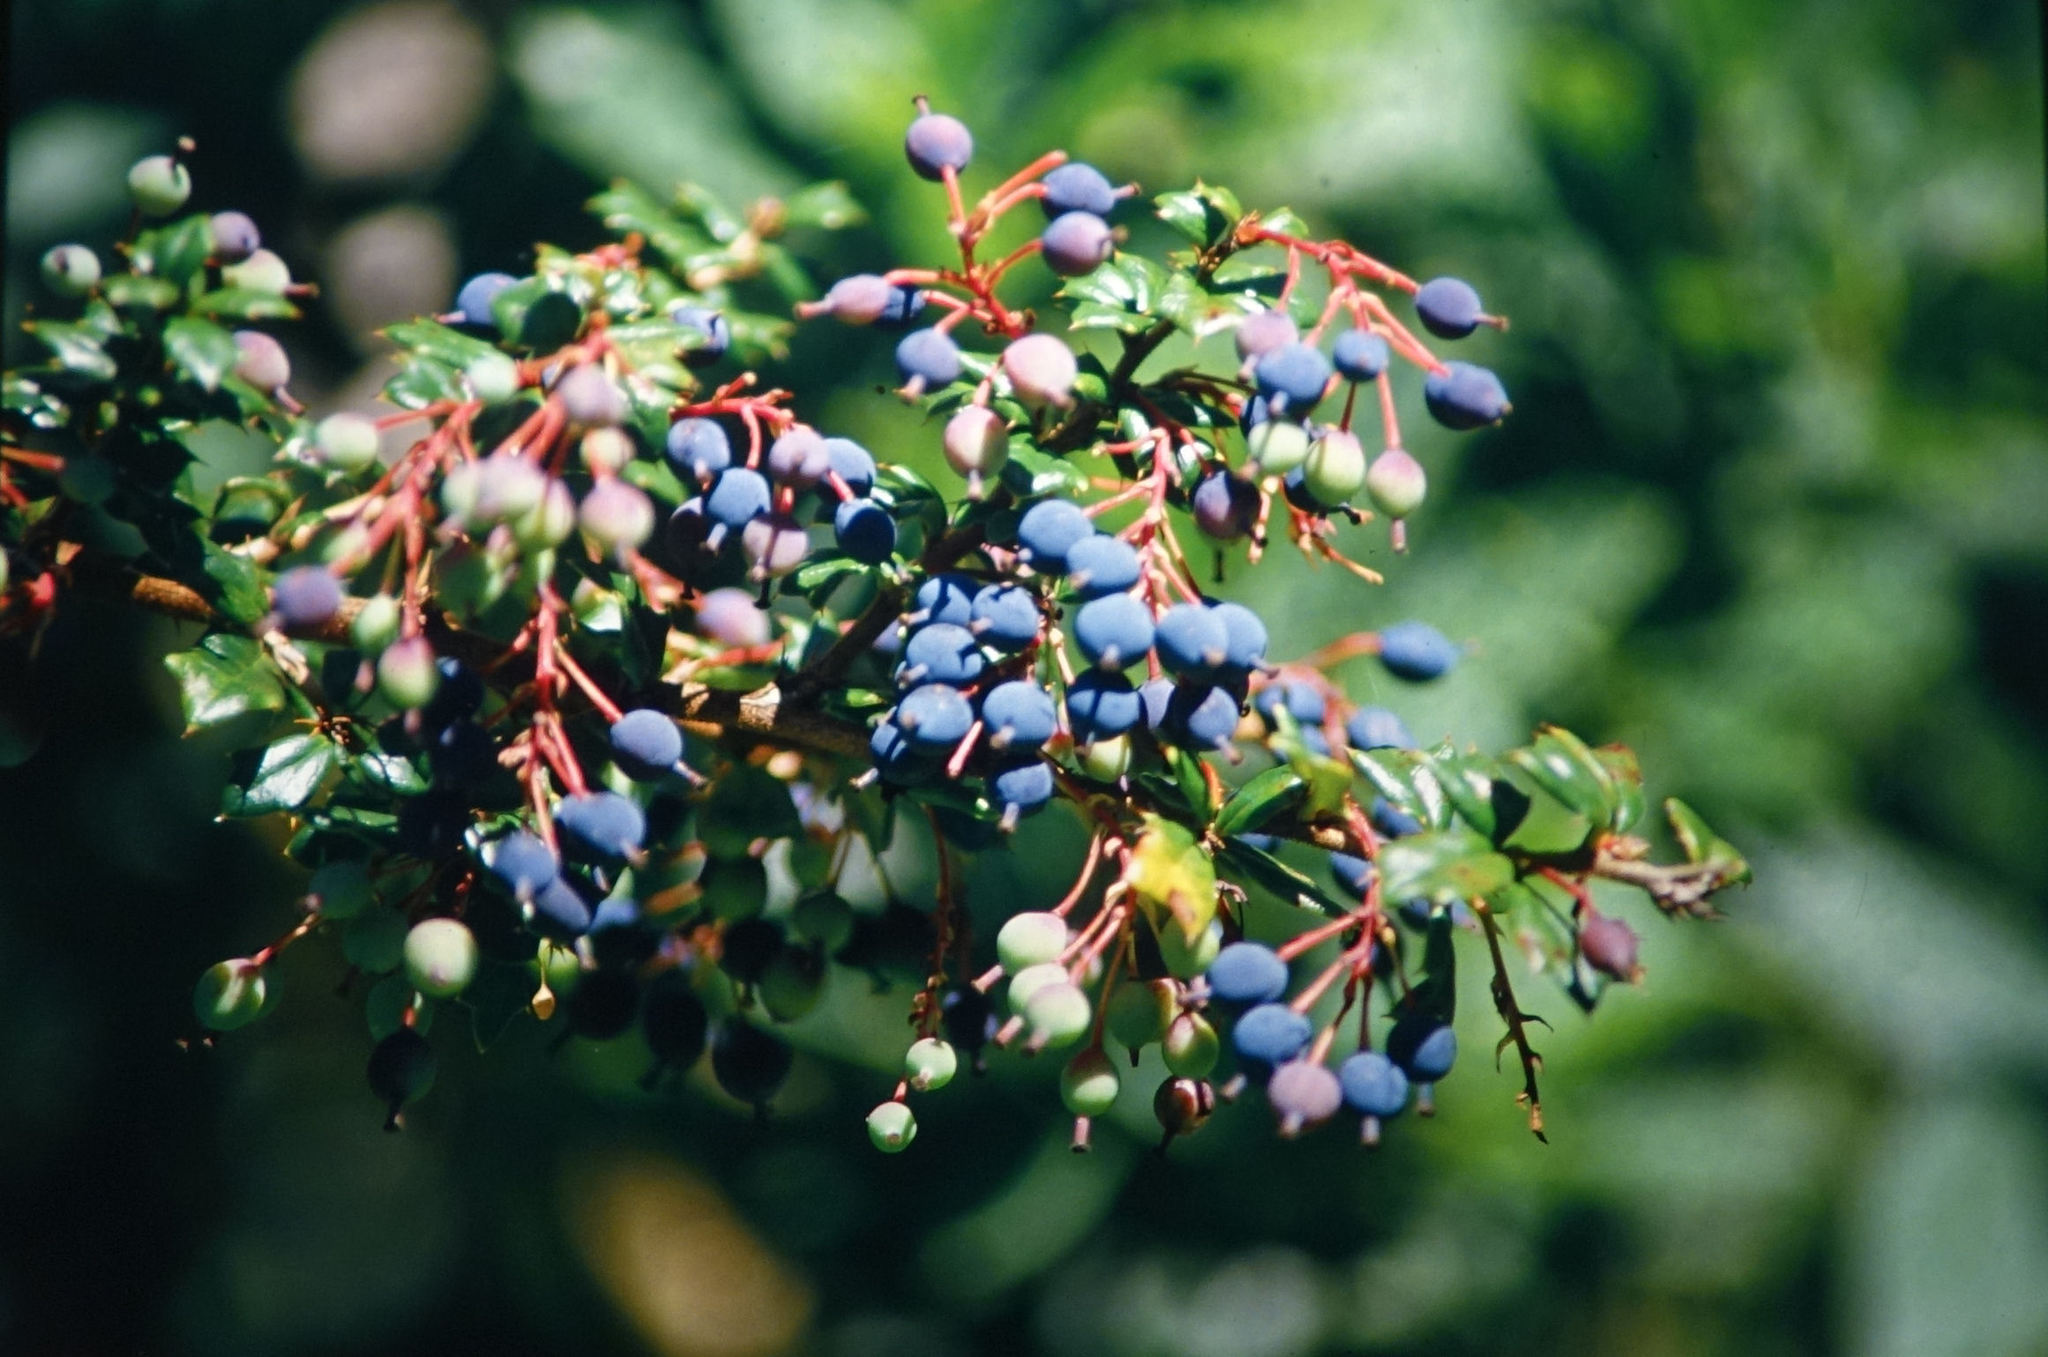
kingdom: Plantae
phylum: Tracheophyta
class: Magnoliopsida
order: Ranunculales
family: Berberidaceae
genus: Berberis
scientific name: Berberis darwinii
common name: Darwin's barberry
